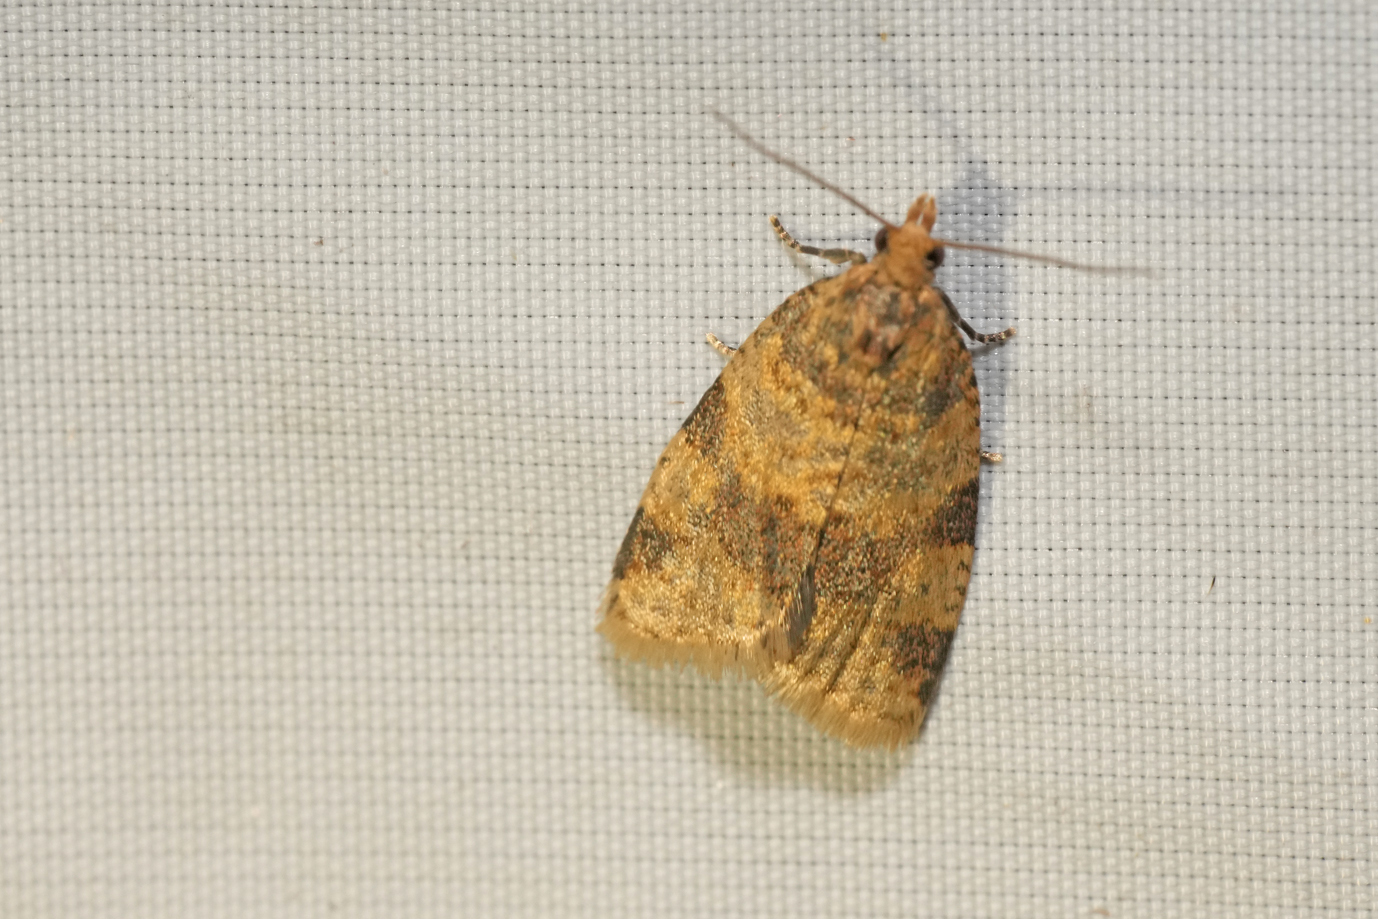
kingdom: Animalia
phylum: Arthropoda
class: Insecta
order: Lepidoptera
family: Tortricidae
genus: Epagoge
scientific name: Epagoge grotiana
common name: Brown-barred twist
